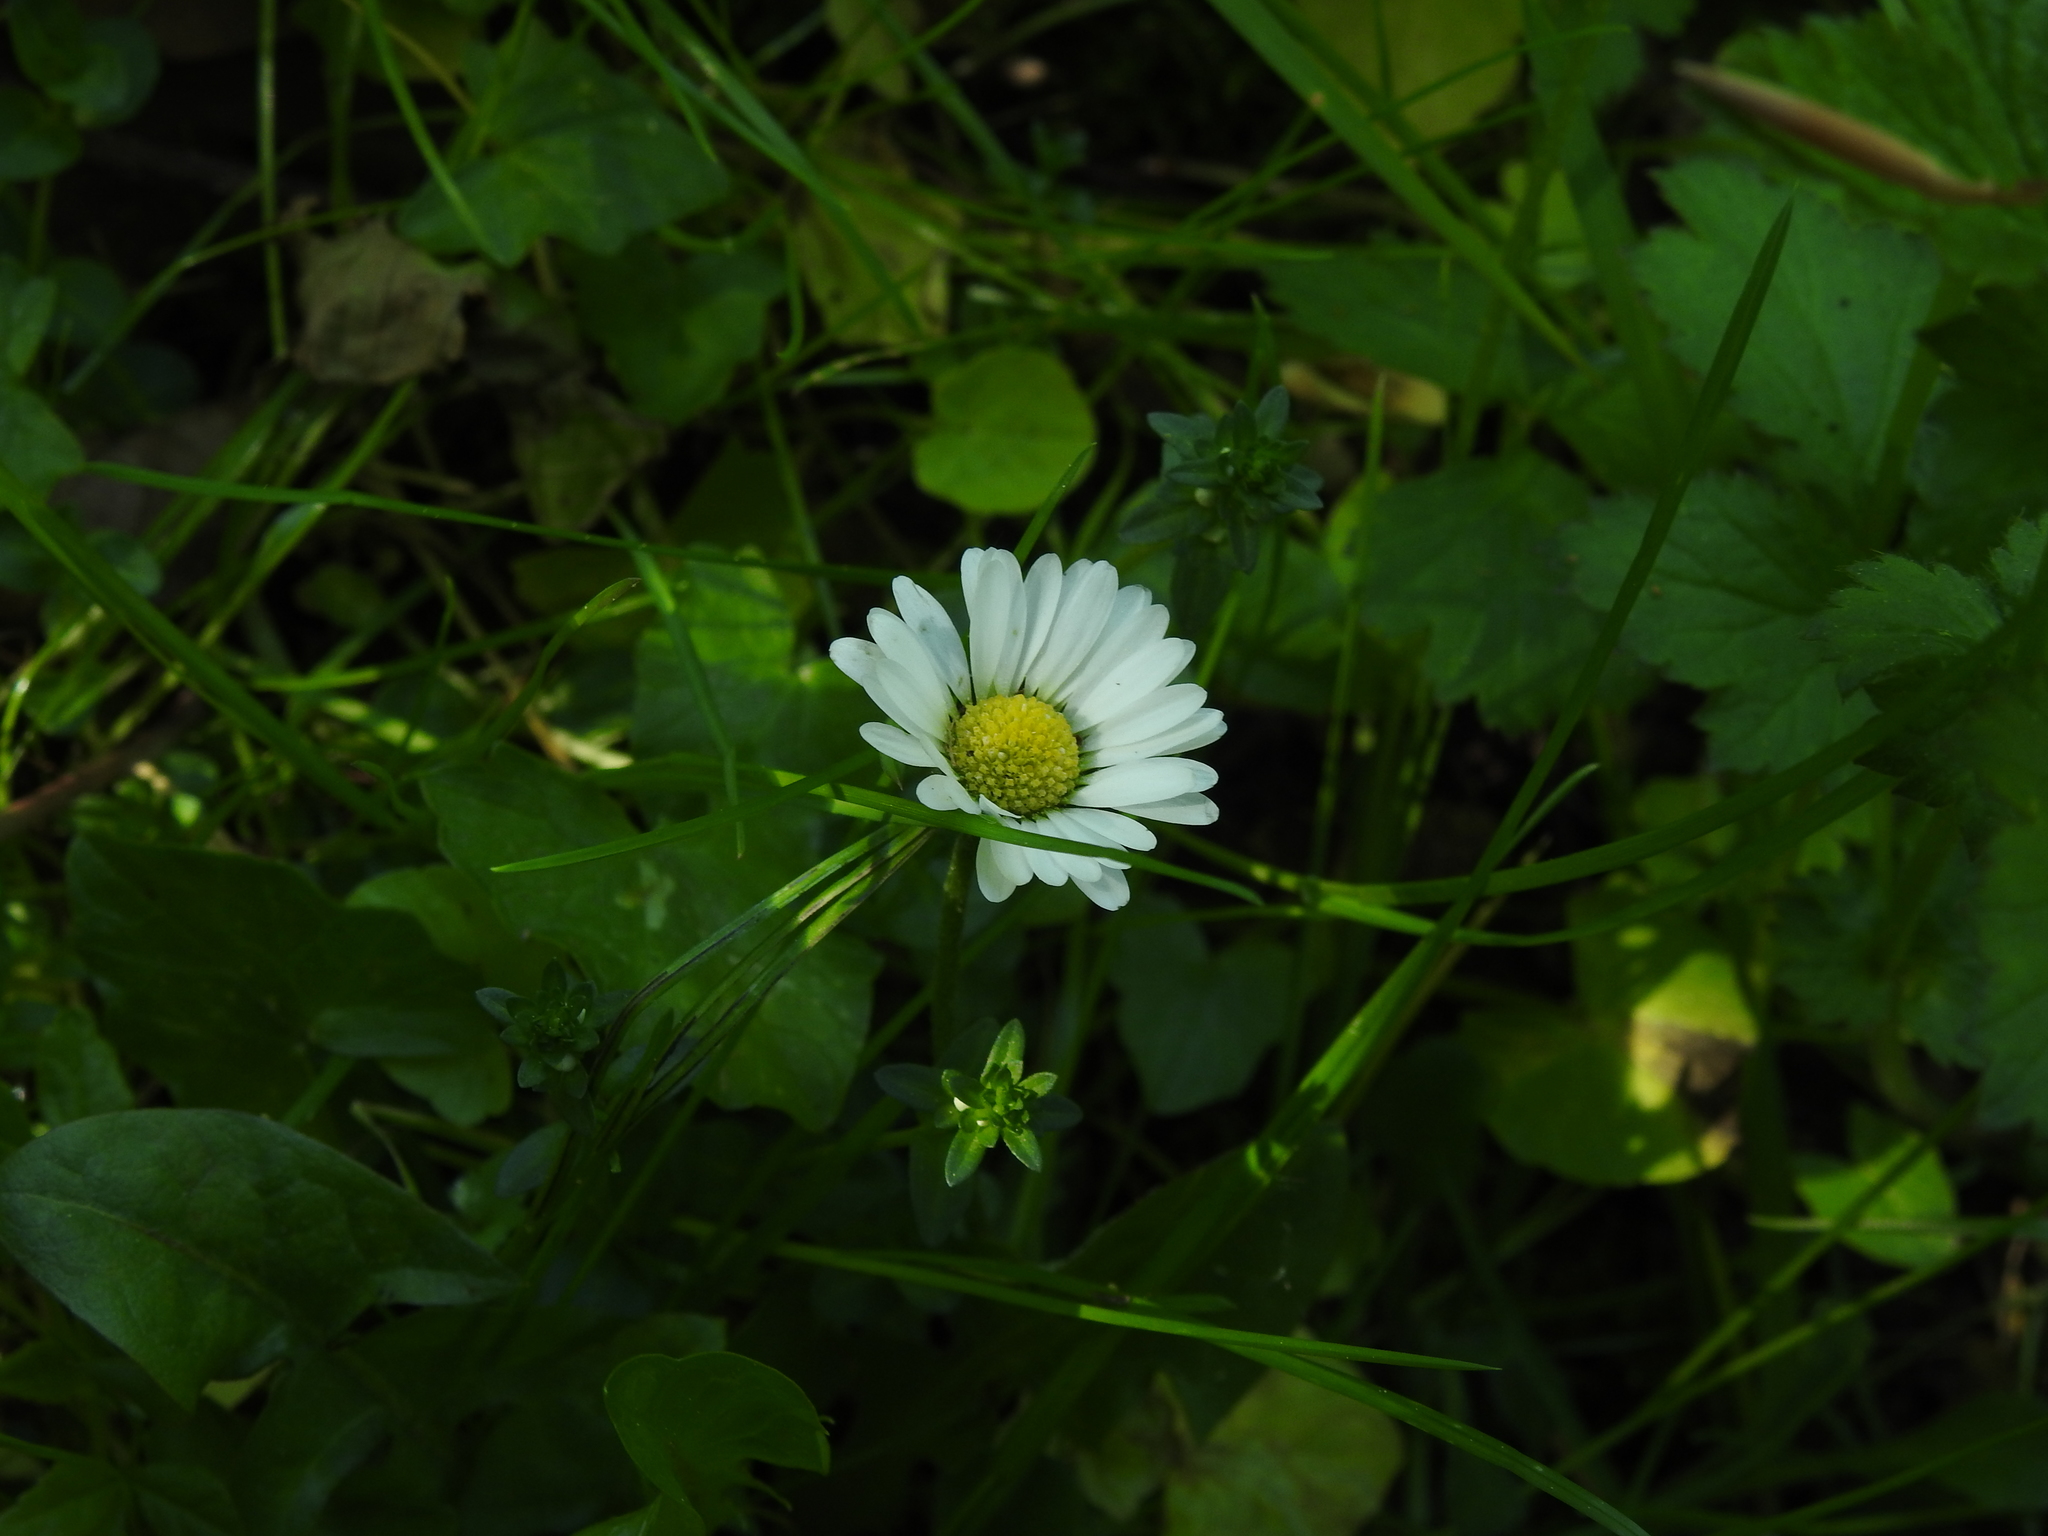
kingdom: Plantae
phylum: Tracheophyta
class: Magnoliopsida
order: Asterales
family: Asteraceae
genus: Bellis
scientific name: Bellis perennis
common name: Lawndaisy
